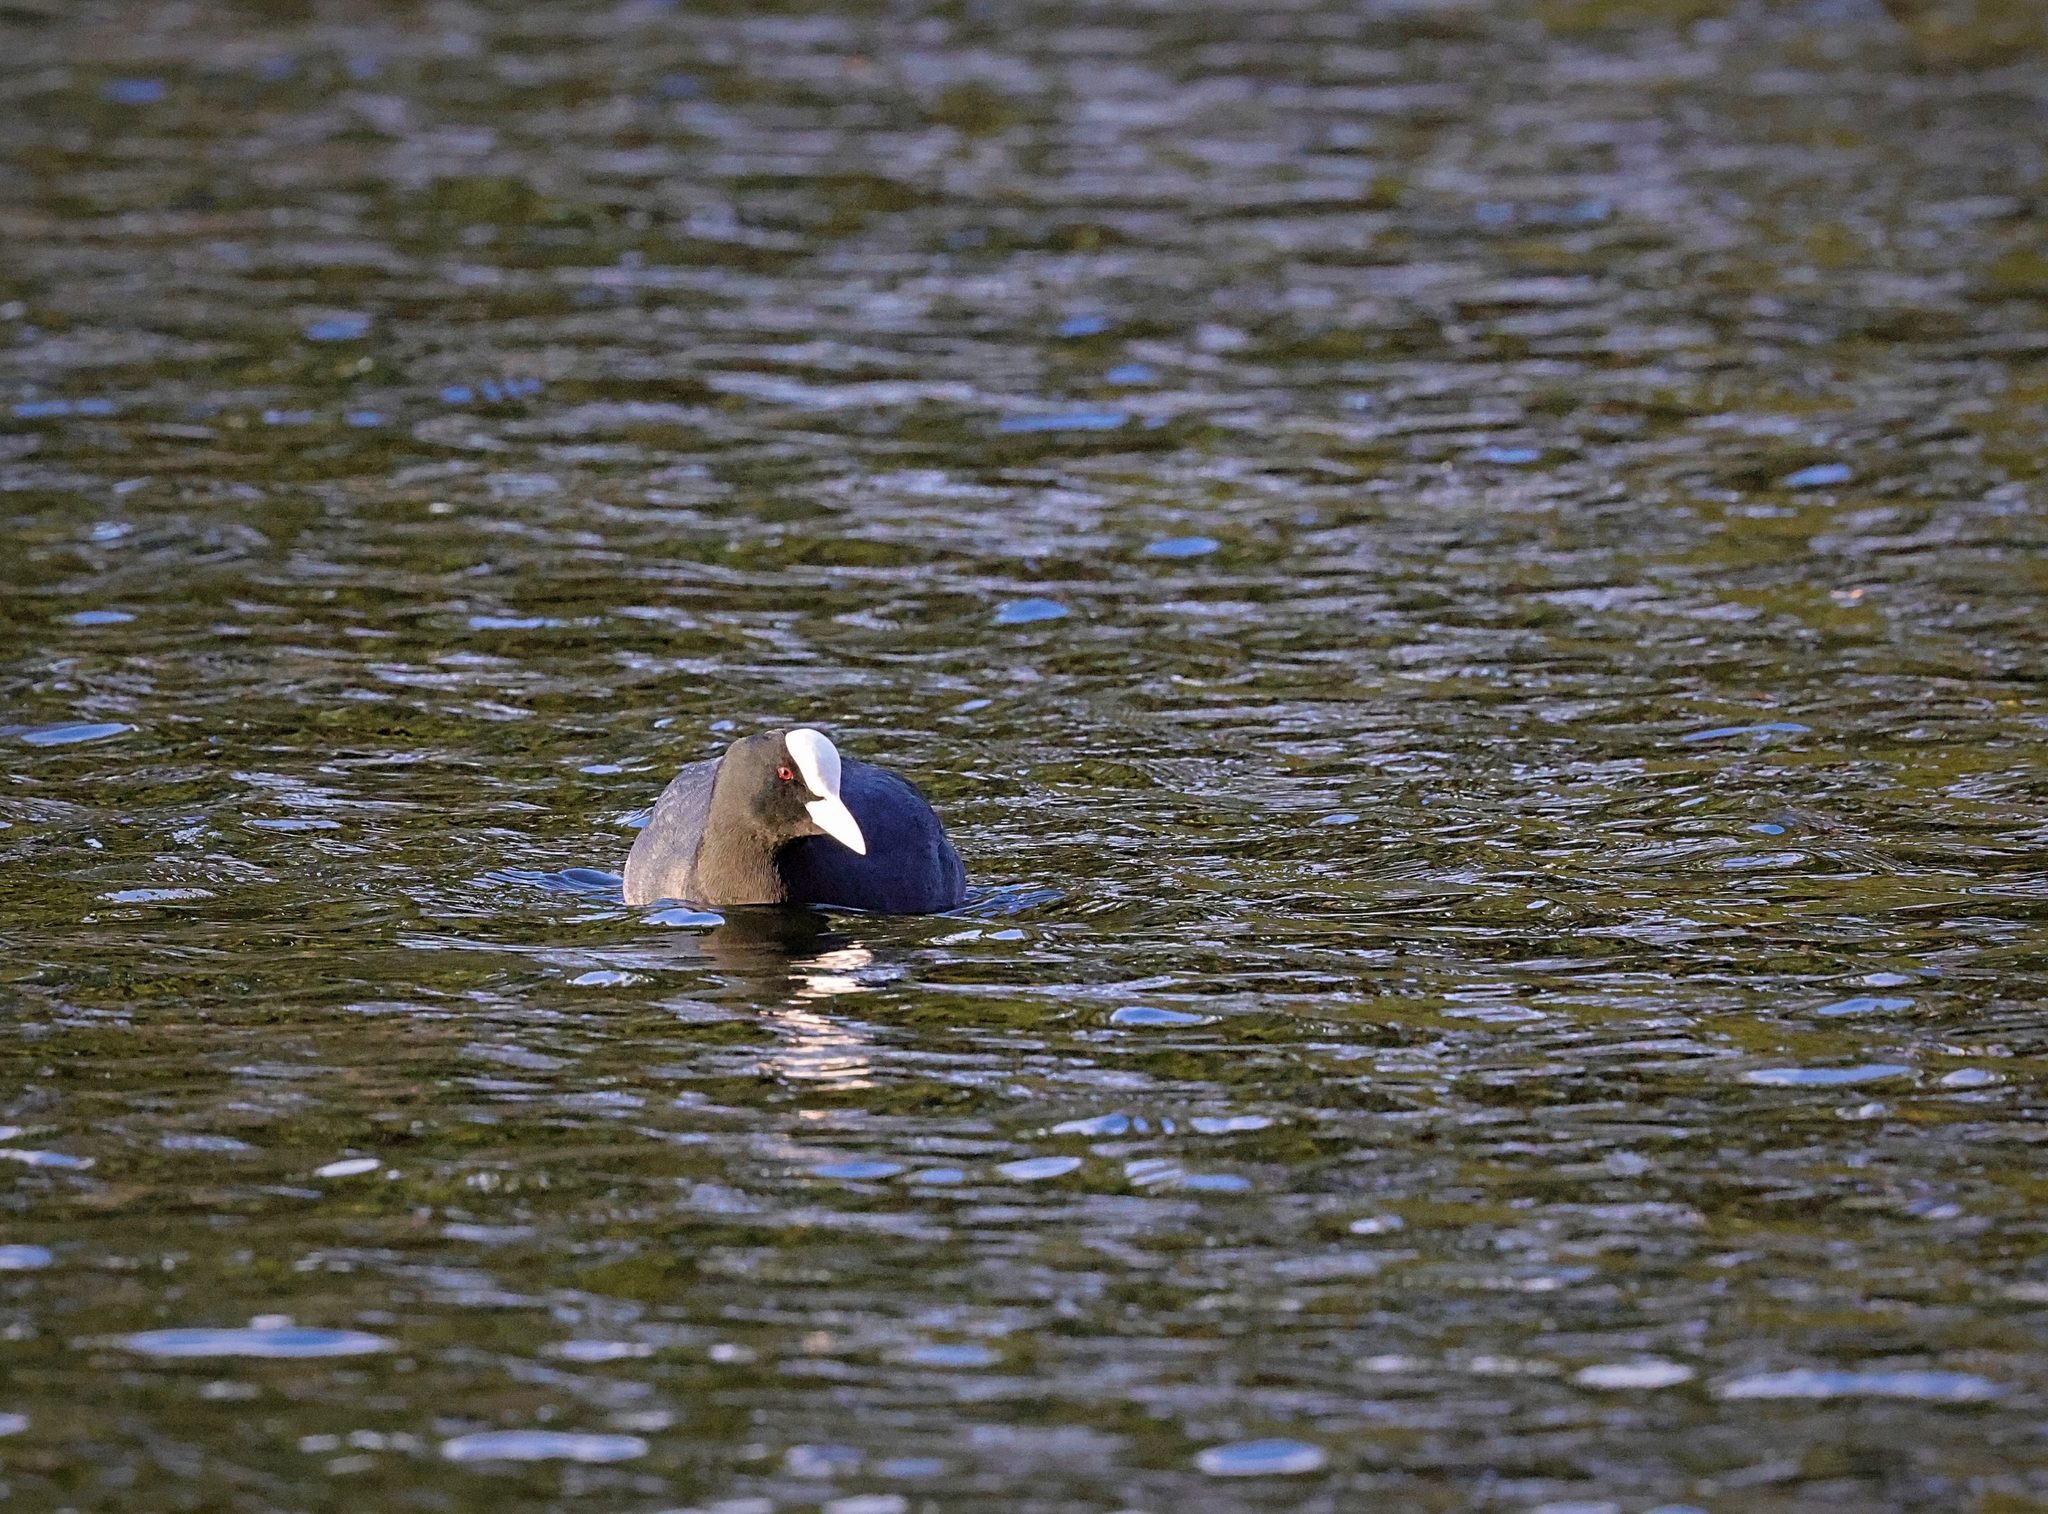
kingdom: Animalia
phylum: Chordata
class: Aves
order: Gruiformes
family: Rallidae
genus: Fulica
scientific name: Fulica atra
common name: Eurasian coot
